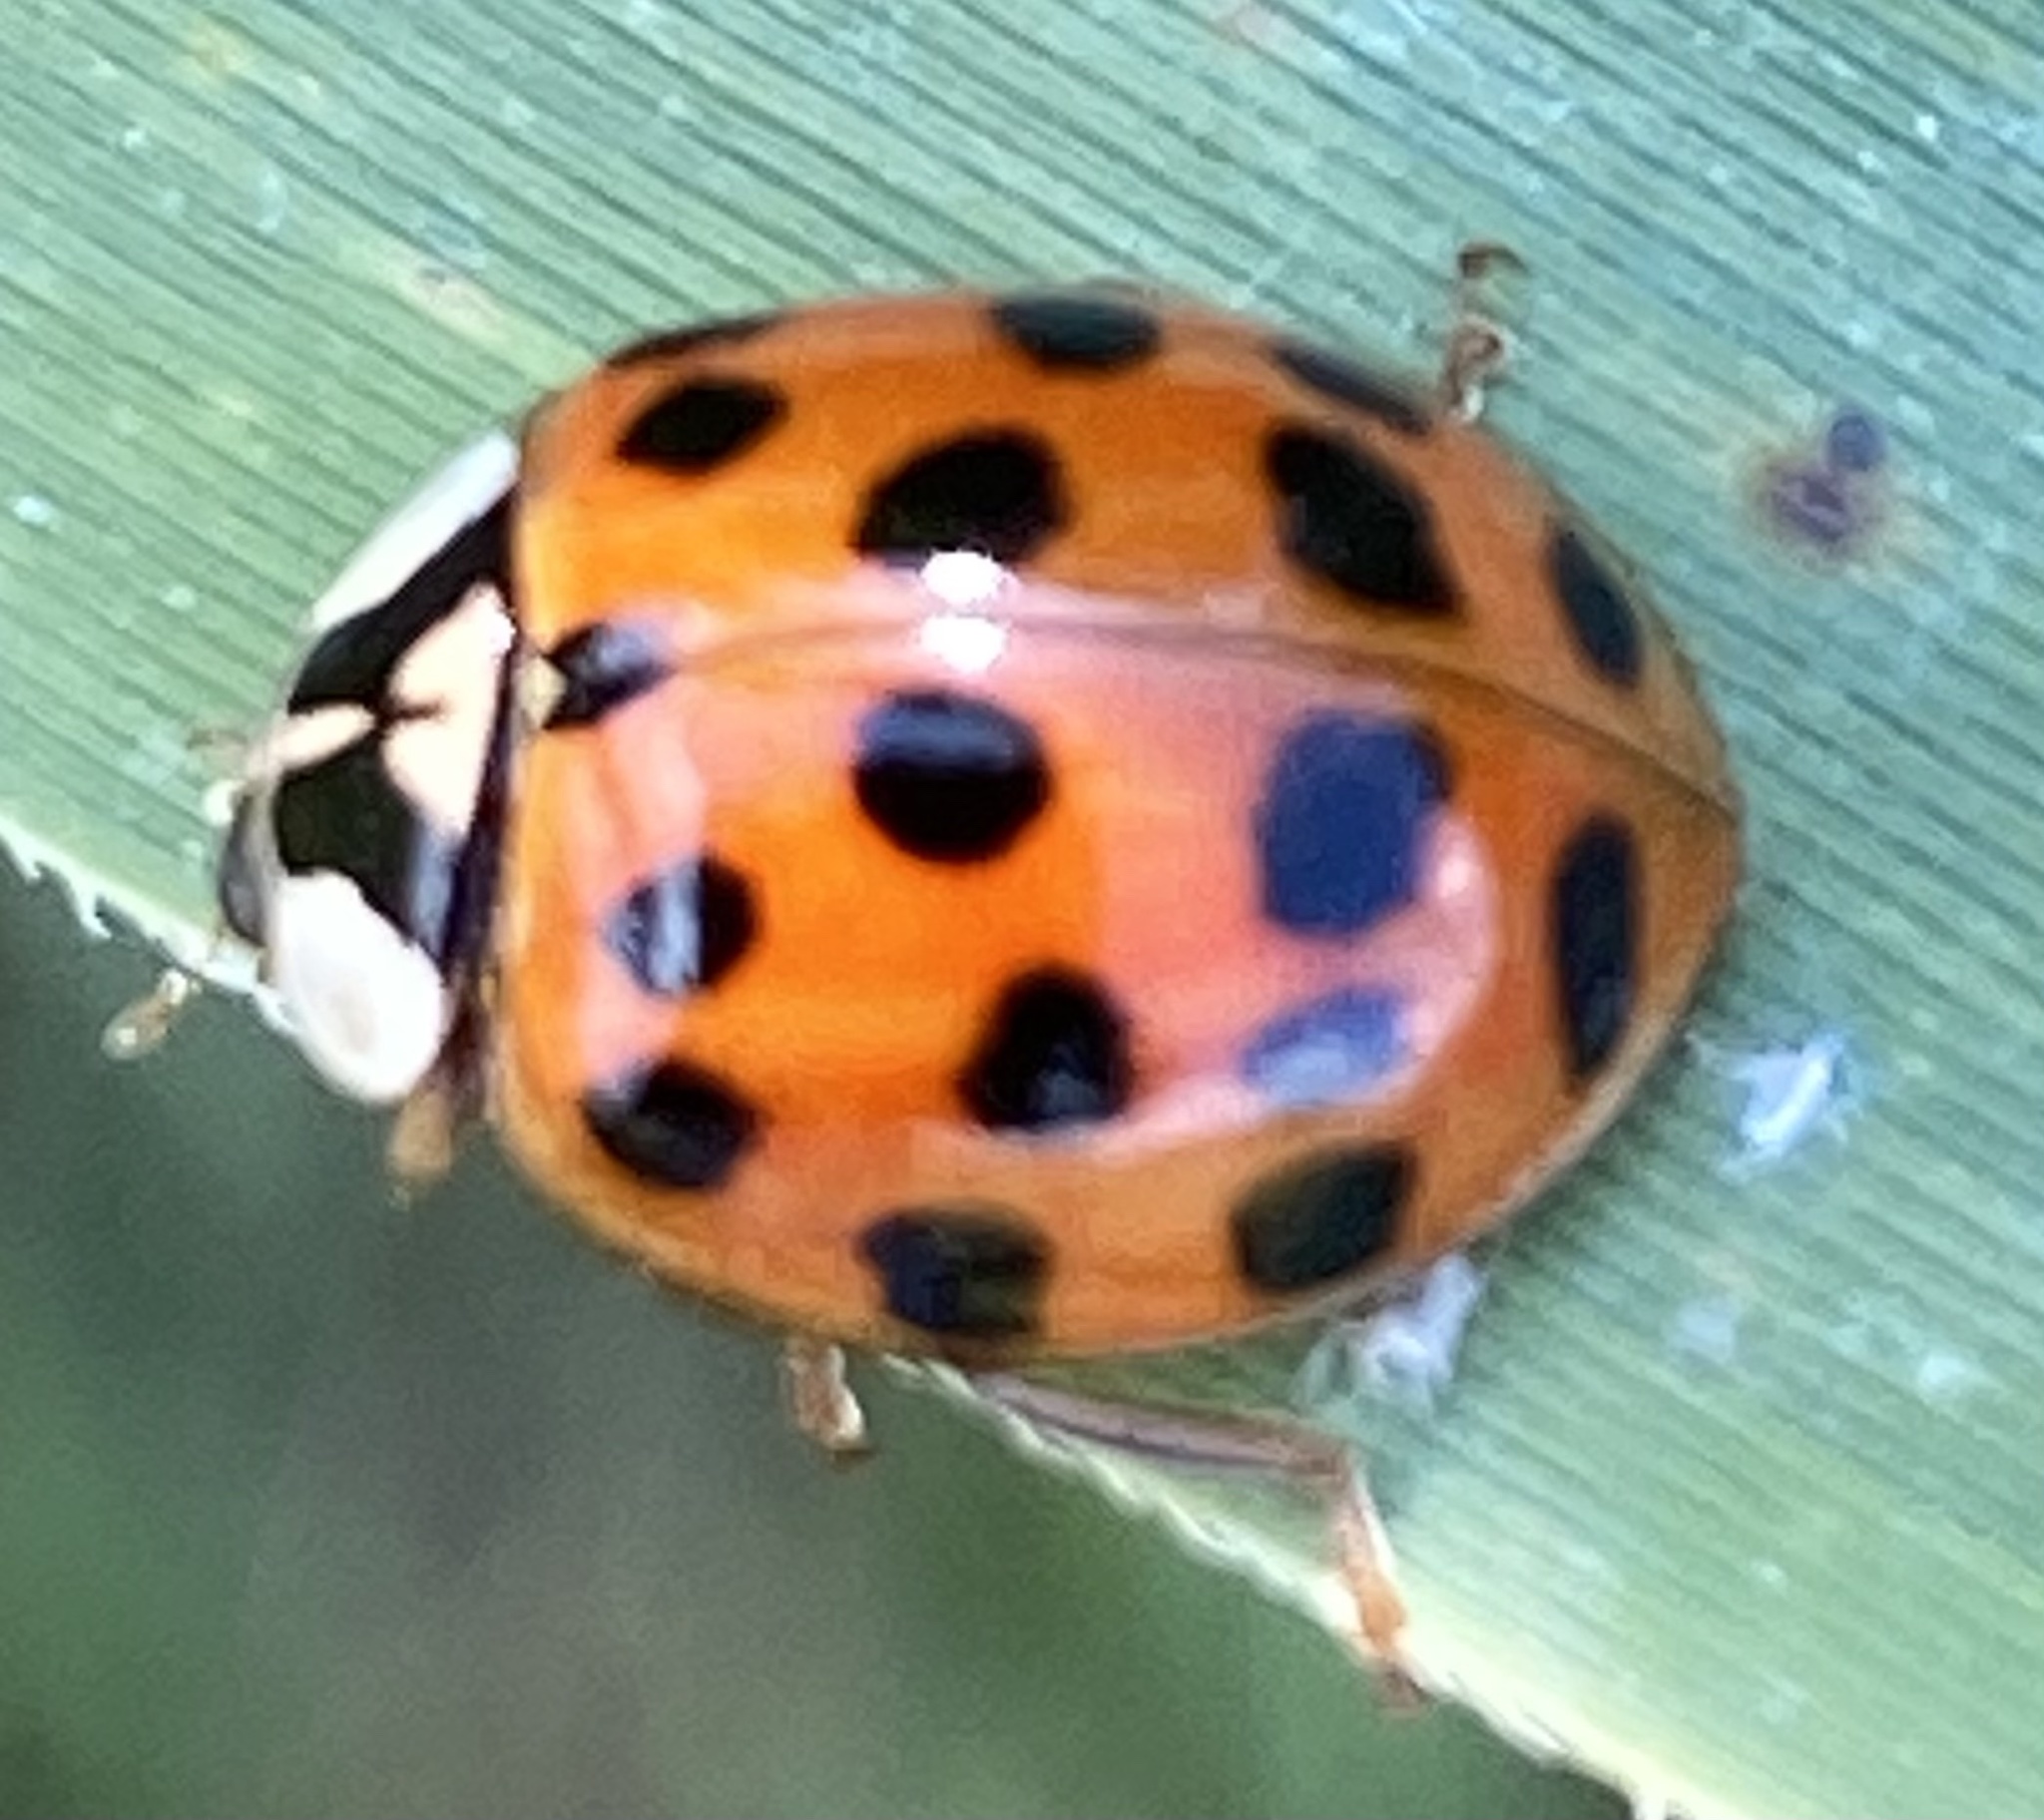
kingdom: Animalia
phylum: Arthropoda
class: Insecta
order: Coleoptera
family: Coccinellidae
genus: Harmonia
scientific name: Harmonia axyridis
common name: Harlequin ladybird
